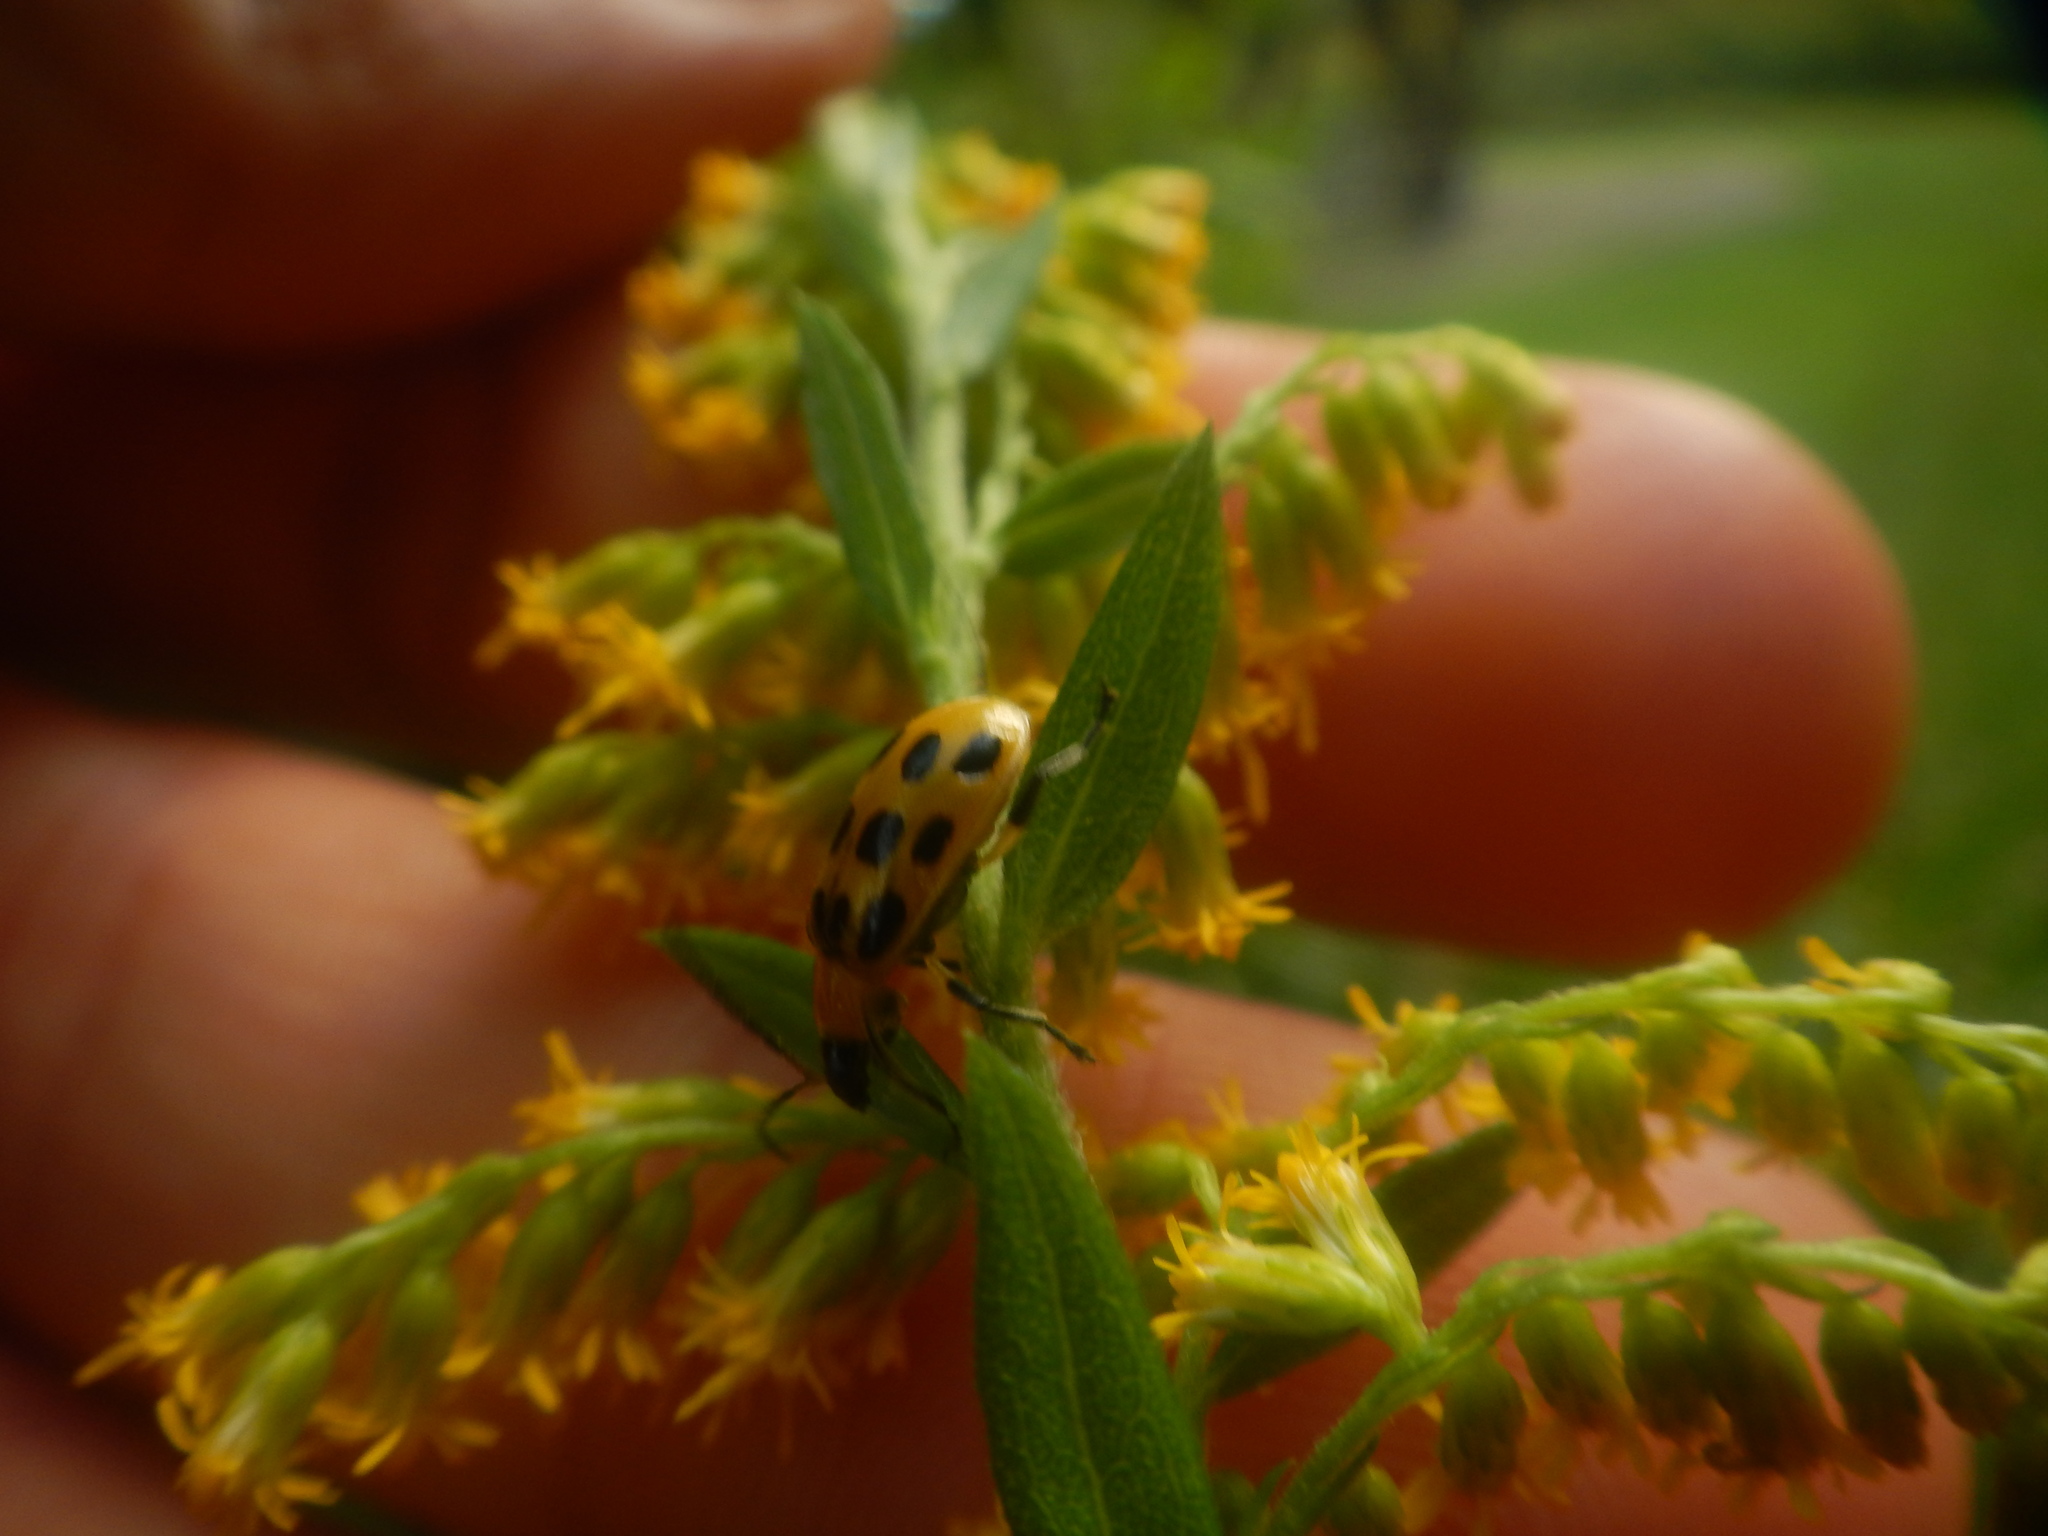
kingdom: Animalia
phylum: Arthropoda
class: Insecta
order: Coleoptera
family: Chrysomelidae
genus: Diabrotica
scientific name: Diabrotica undecimpunctata
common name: Spotted cucumber beetle
